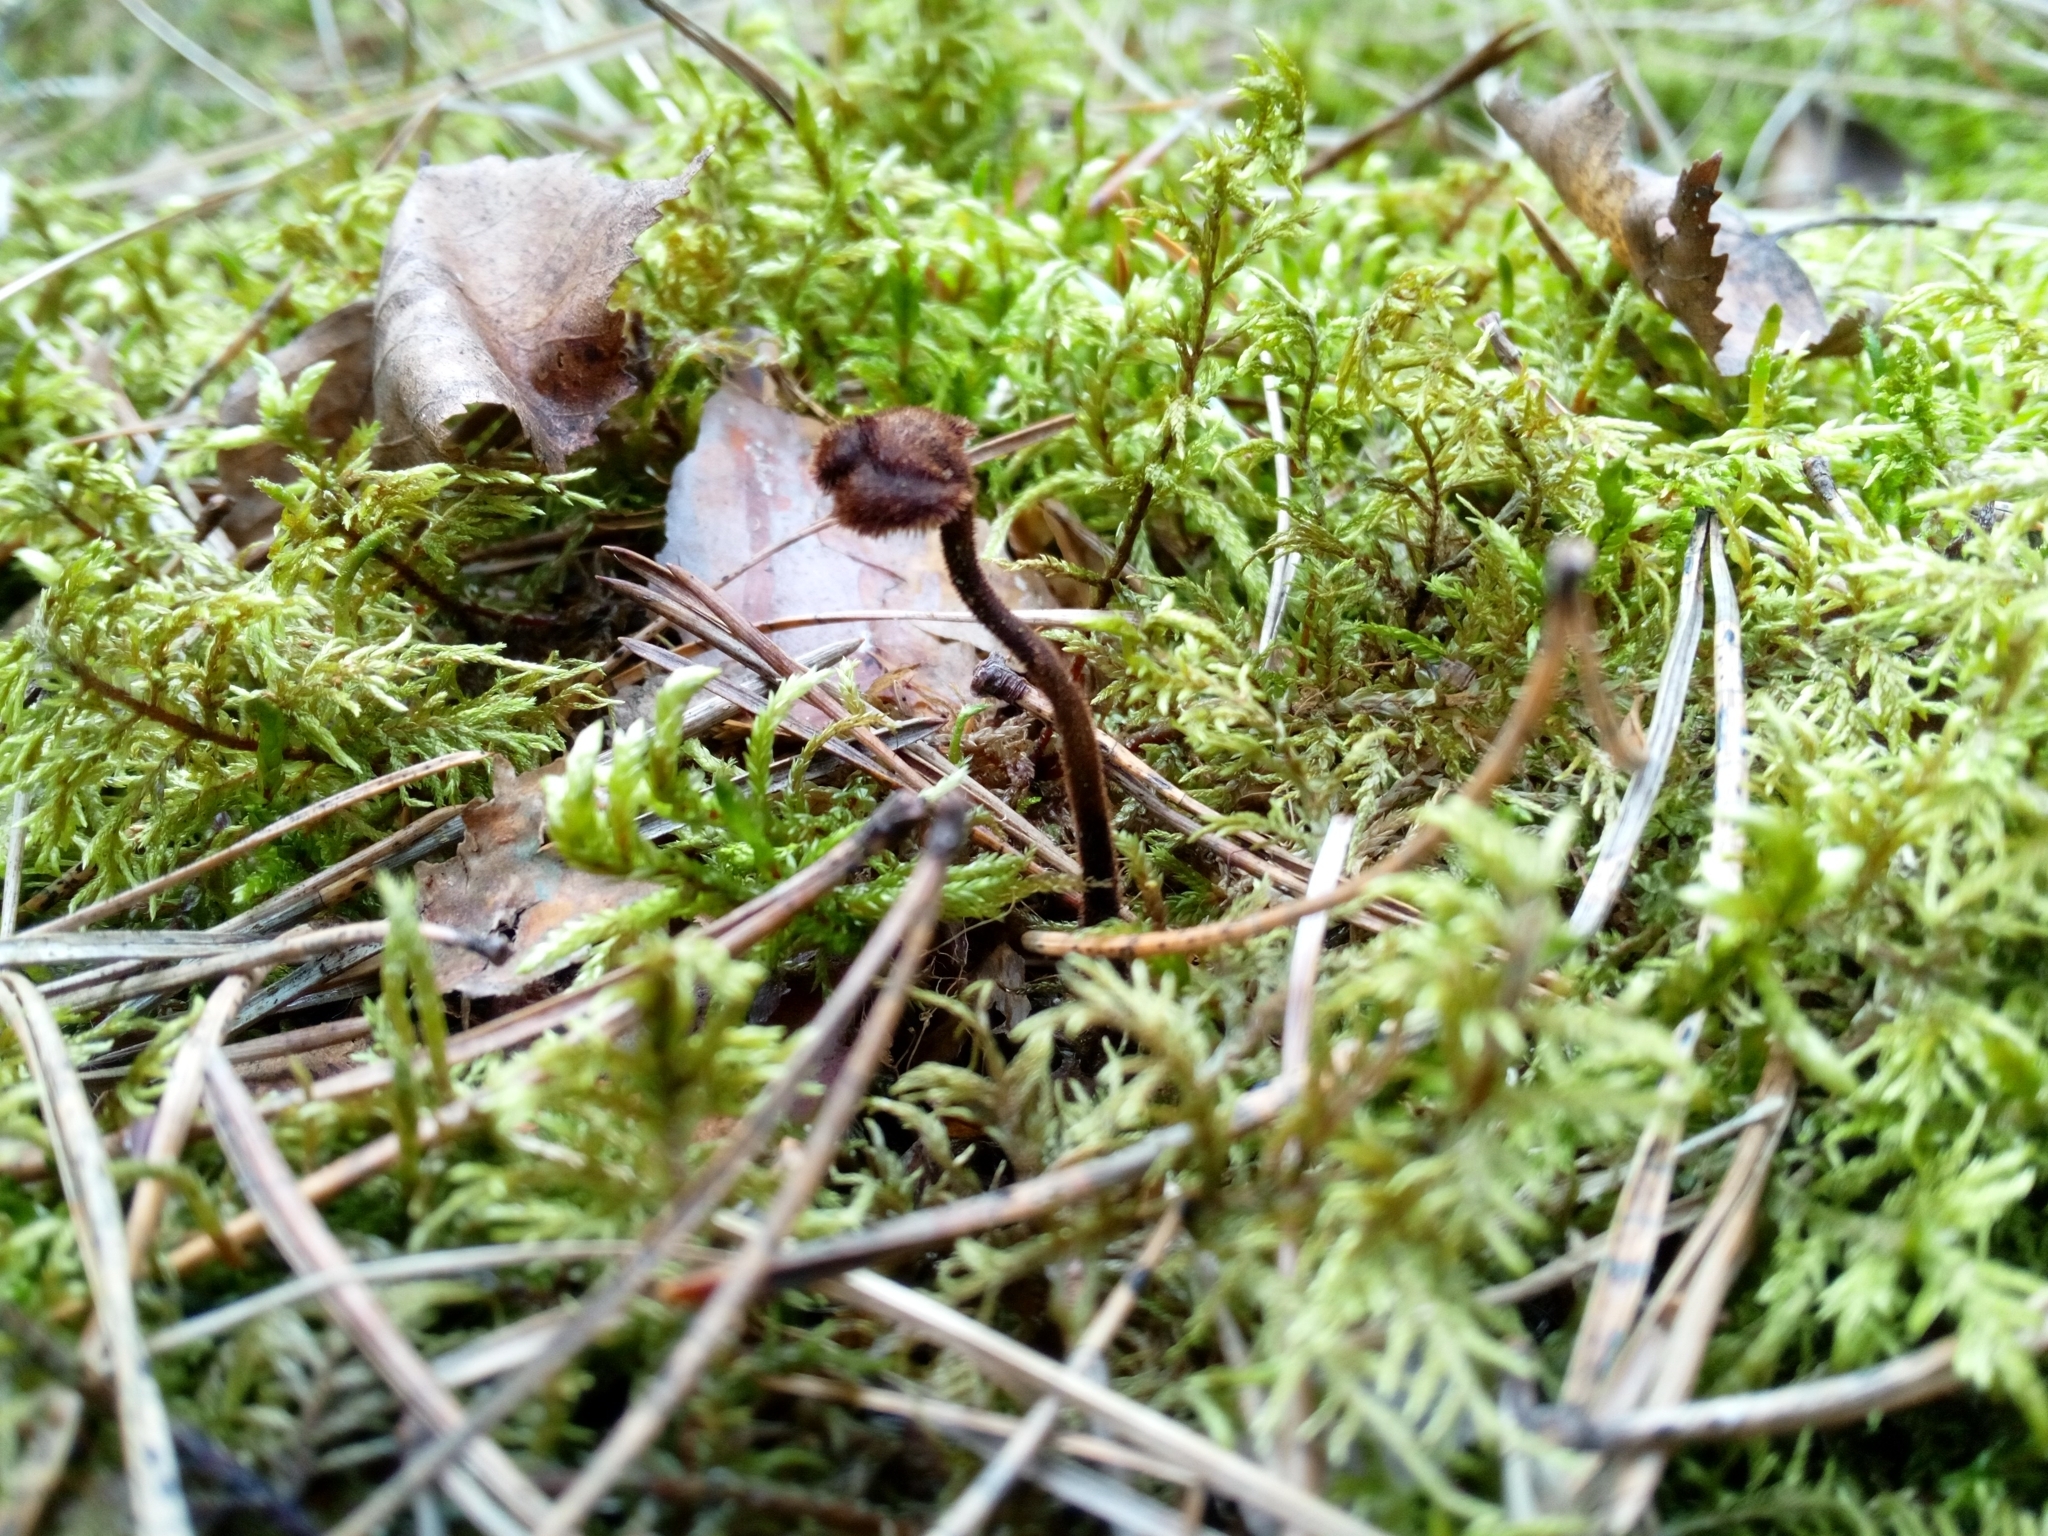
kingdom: Fungi
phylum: Basidiomycota
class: Agaricomycetes
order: Russulales
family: Auriscalpiaceae
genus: Auriscalpium
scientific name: Auriscalpium vulgare
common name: Earpick fungus
